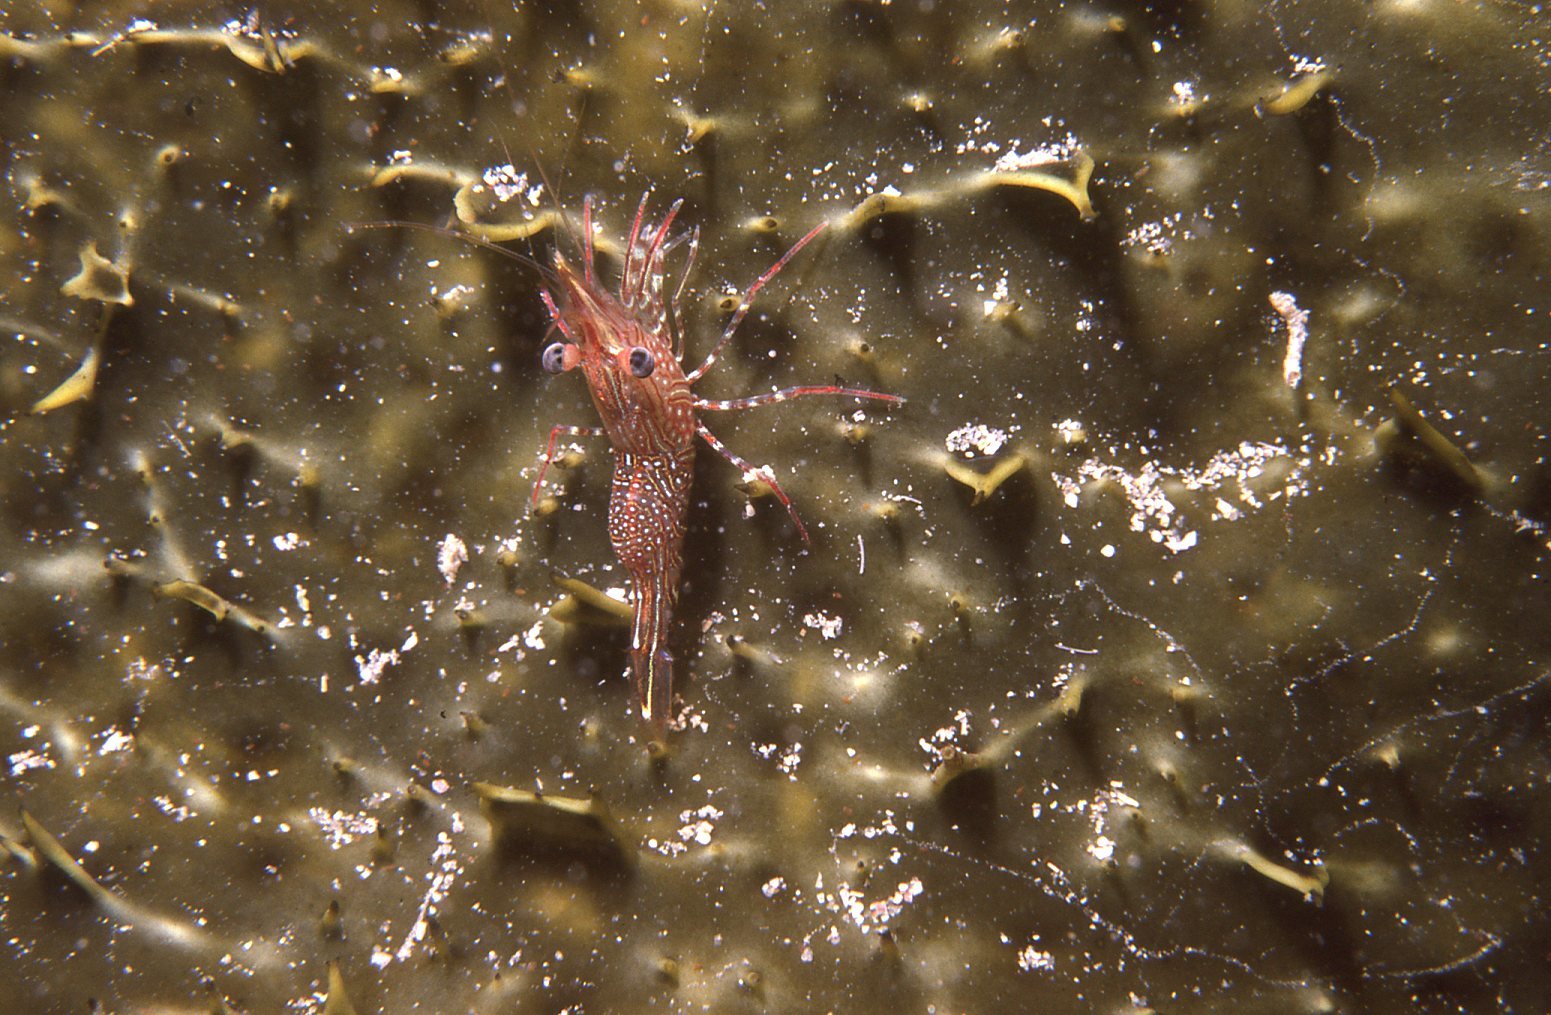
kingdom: Animalia
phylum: Arthropoda
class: Malacostraca
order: Decapoda
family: Rhynchocinetidae
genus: Rhynchocinetes
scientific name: Rhynchocinetes serratus
